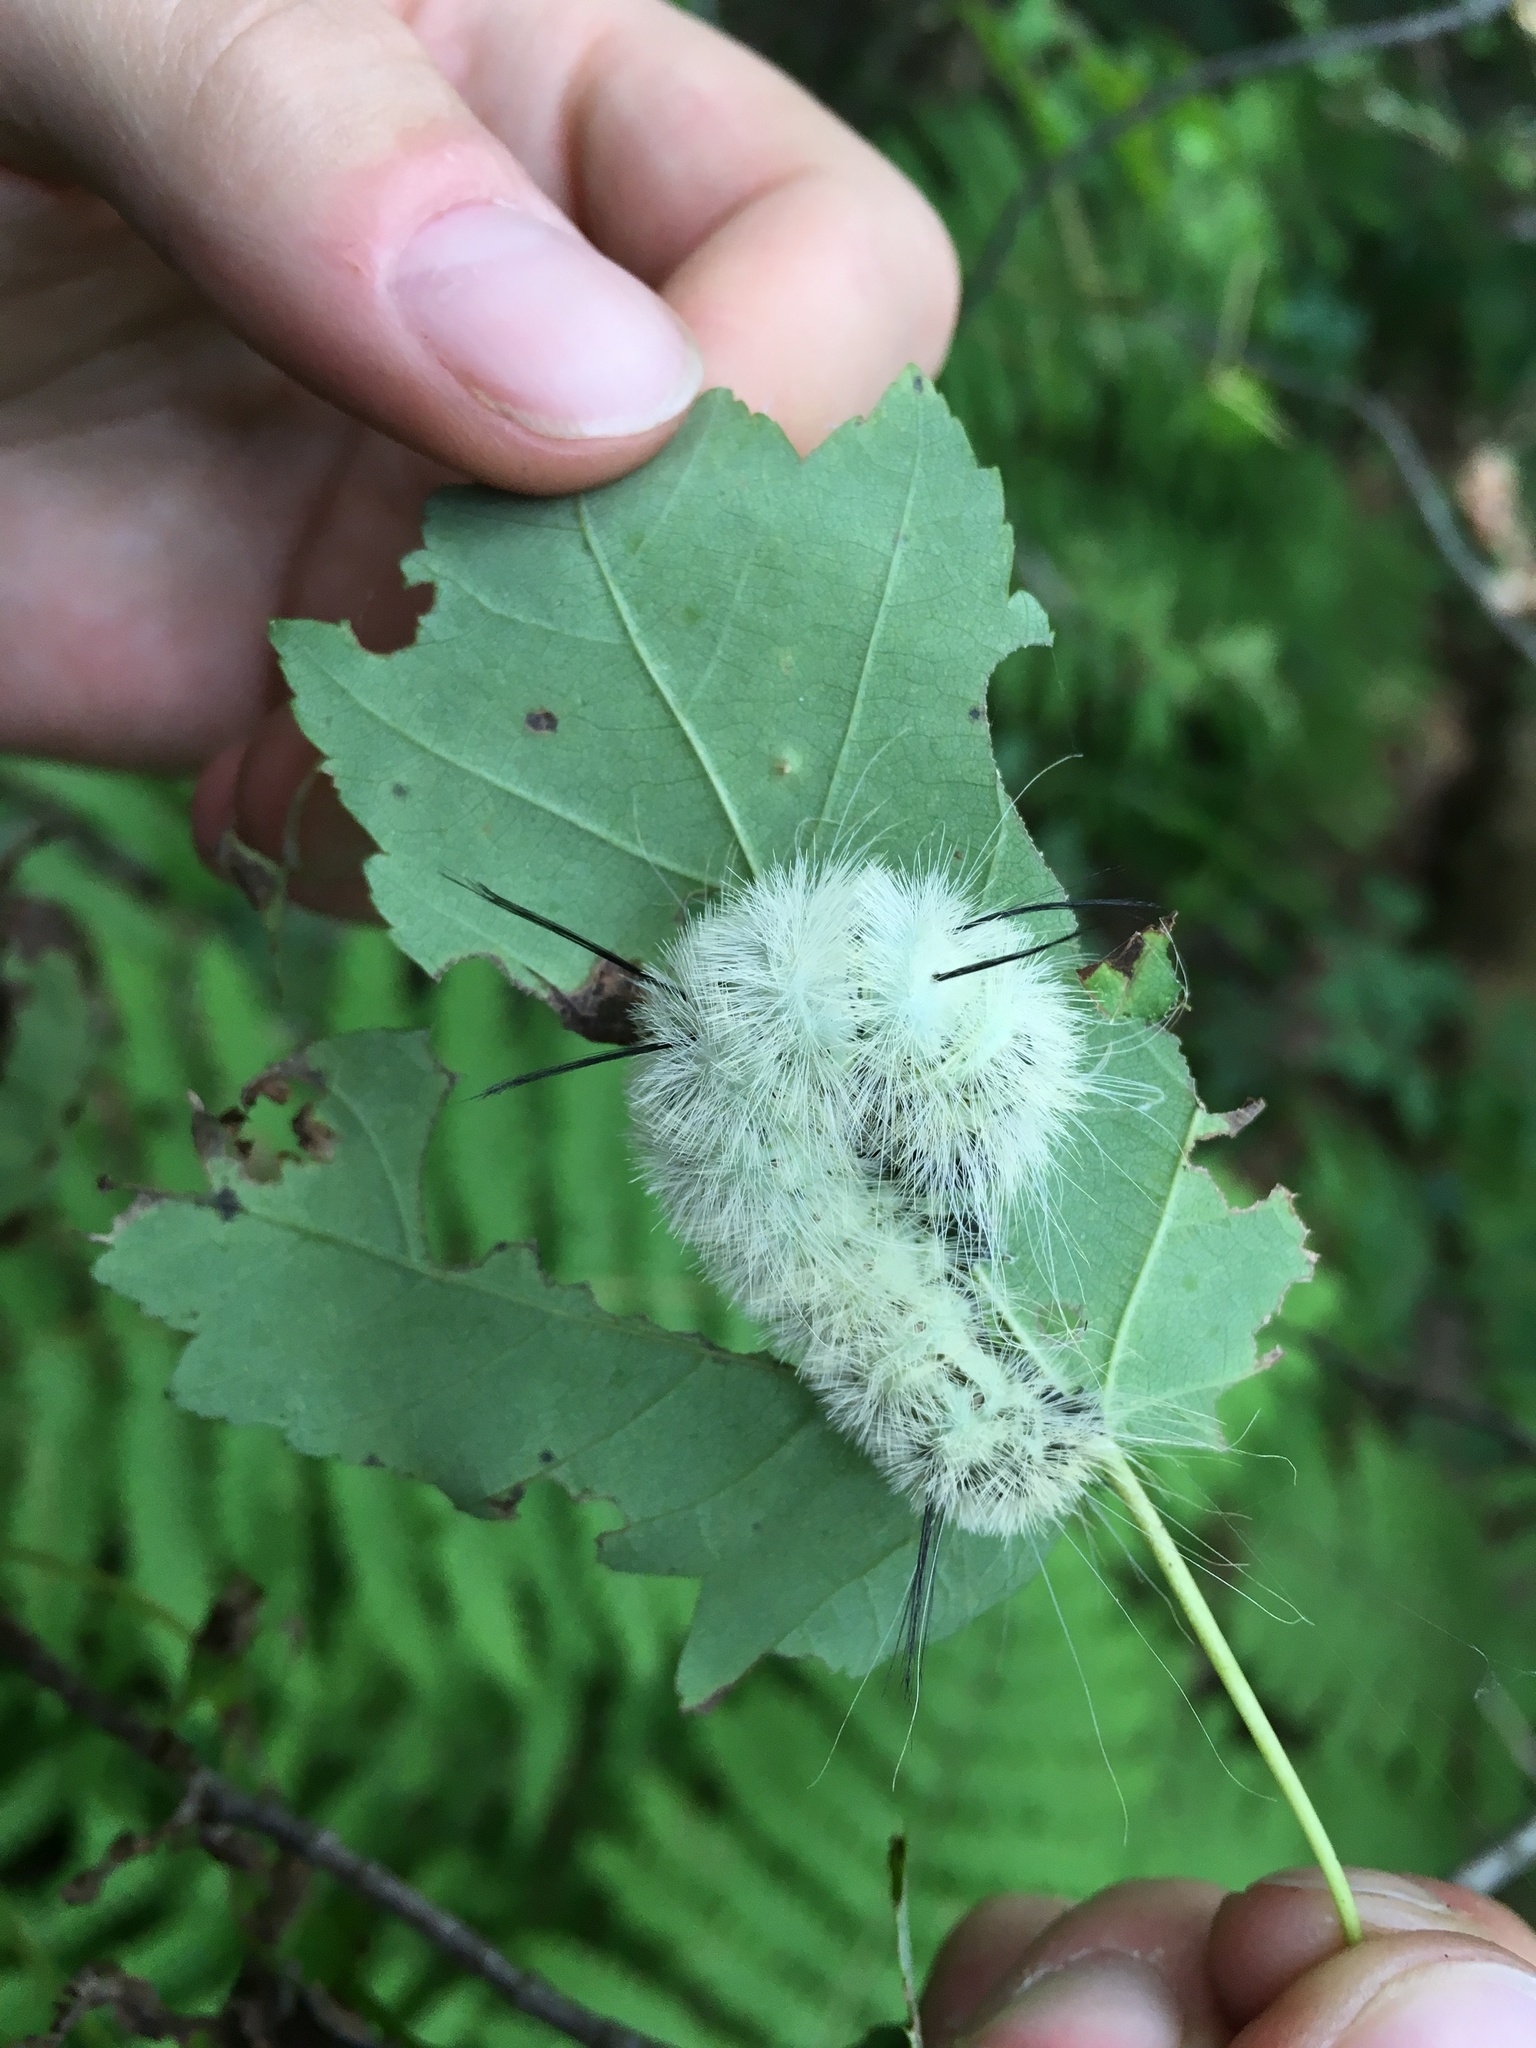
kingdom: Animalia
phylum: Arthropoda
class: Insecta
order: Lepidoptera
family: Noctuidae
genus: Acronicta
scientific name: Acronicta americana
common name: American dagger
